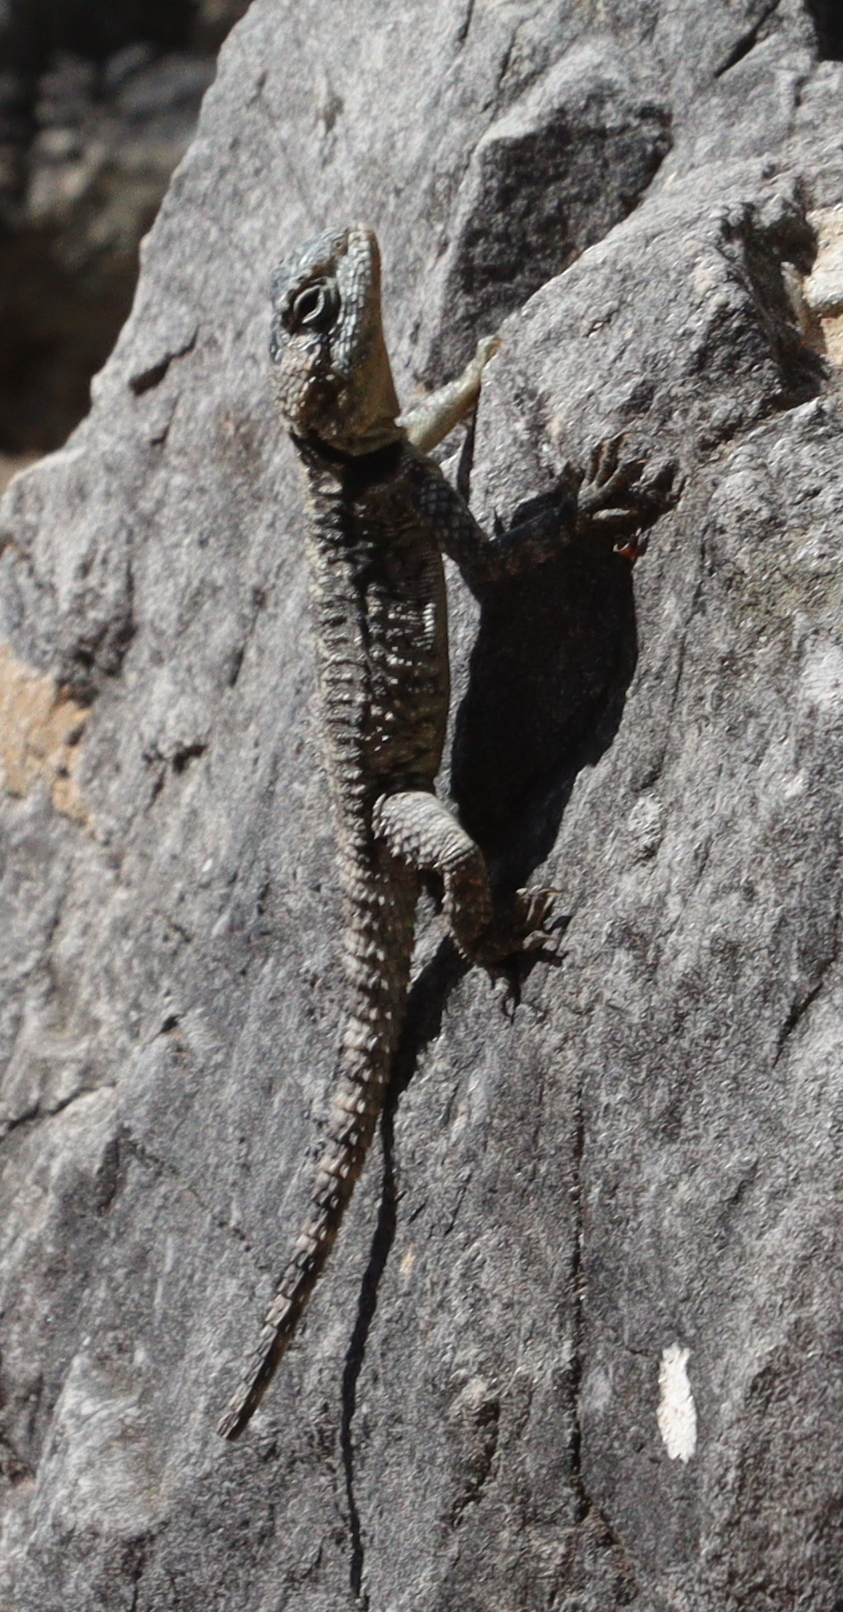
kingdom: Animalia
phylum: Chordata
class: Squamata
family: Agamidae
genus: Stellagama
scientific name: Stellagama stellio
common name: Starred agama
